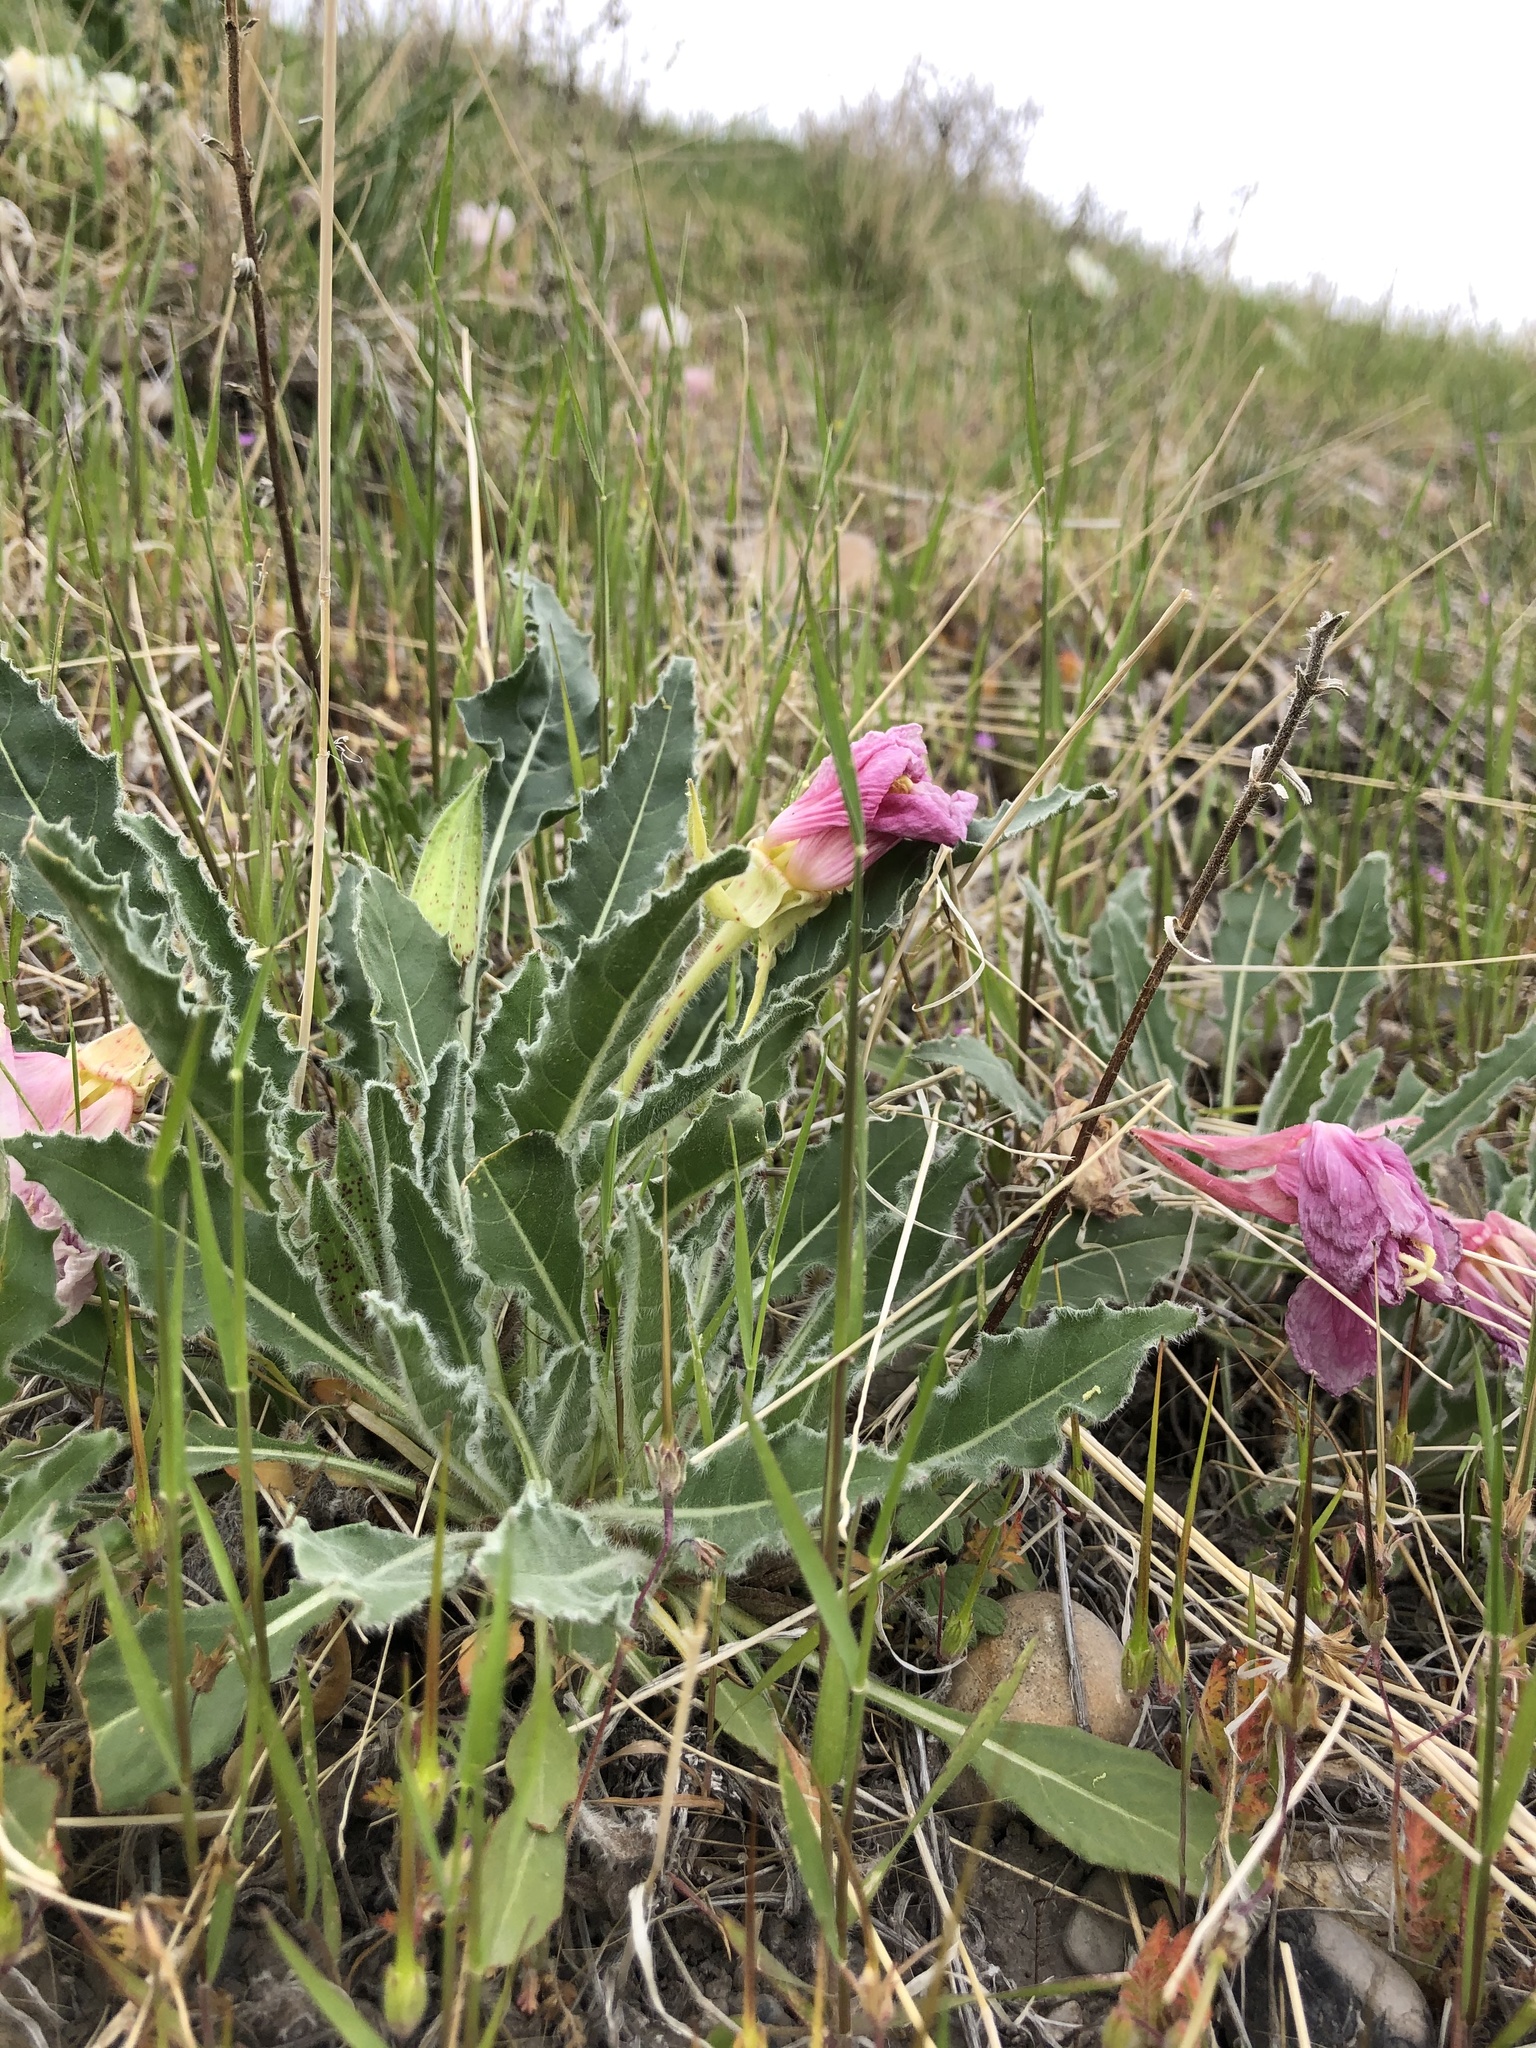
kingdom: Plantae
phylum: Tracheophyta
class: Magnoliopsida
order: Myrtales
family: Onagraceae
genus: Oenothera
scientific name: Oenothera cespitosa
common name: Tufted evening-primrose
